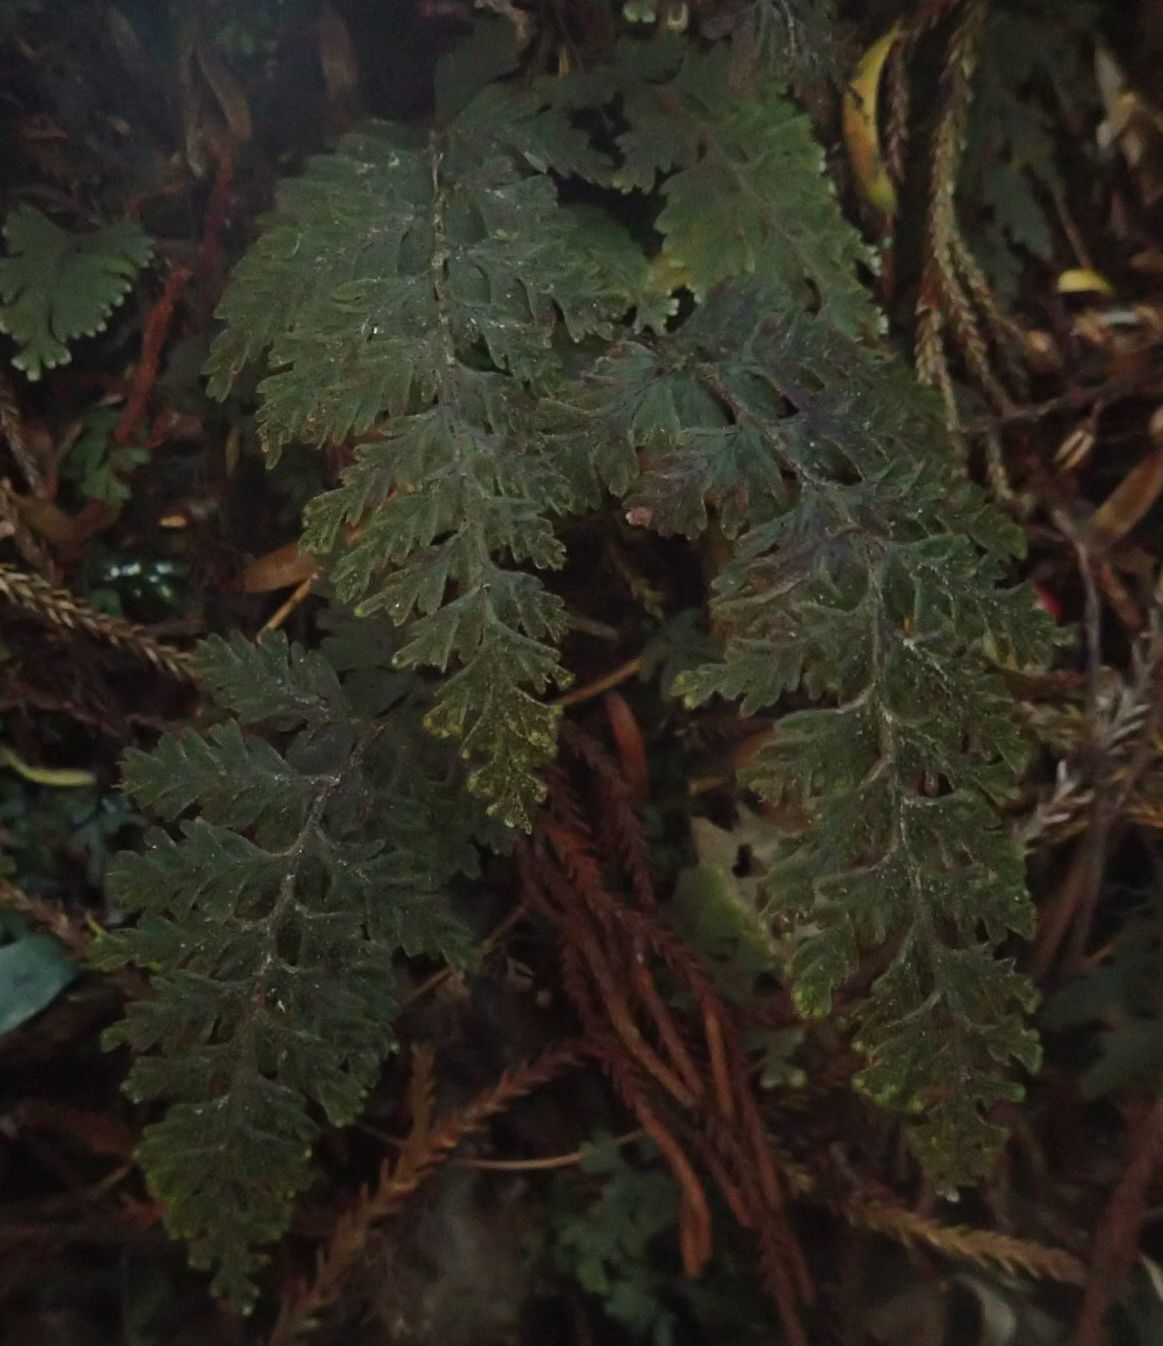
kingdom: Plantae
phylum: Tracheophyta
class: Polypodiopsida
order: Hymenophyllales
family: Hymenophyllaceae
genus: Hymenophyllum
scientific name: Hymenophyllum frankliniae
